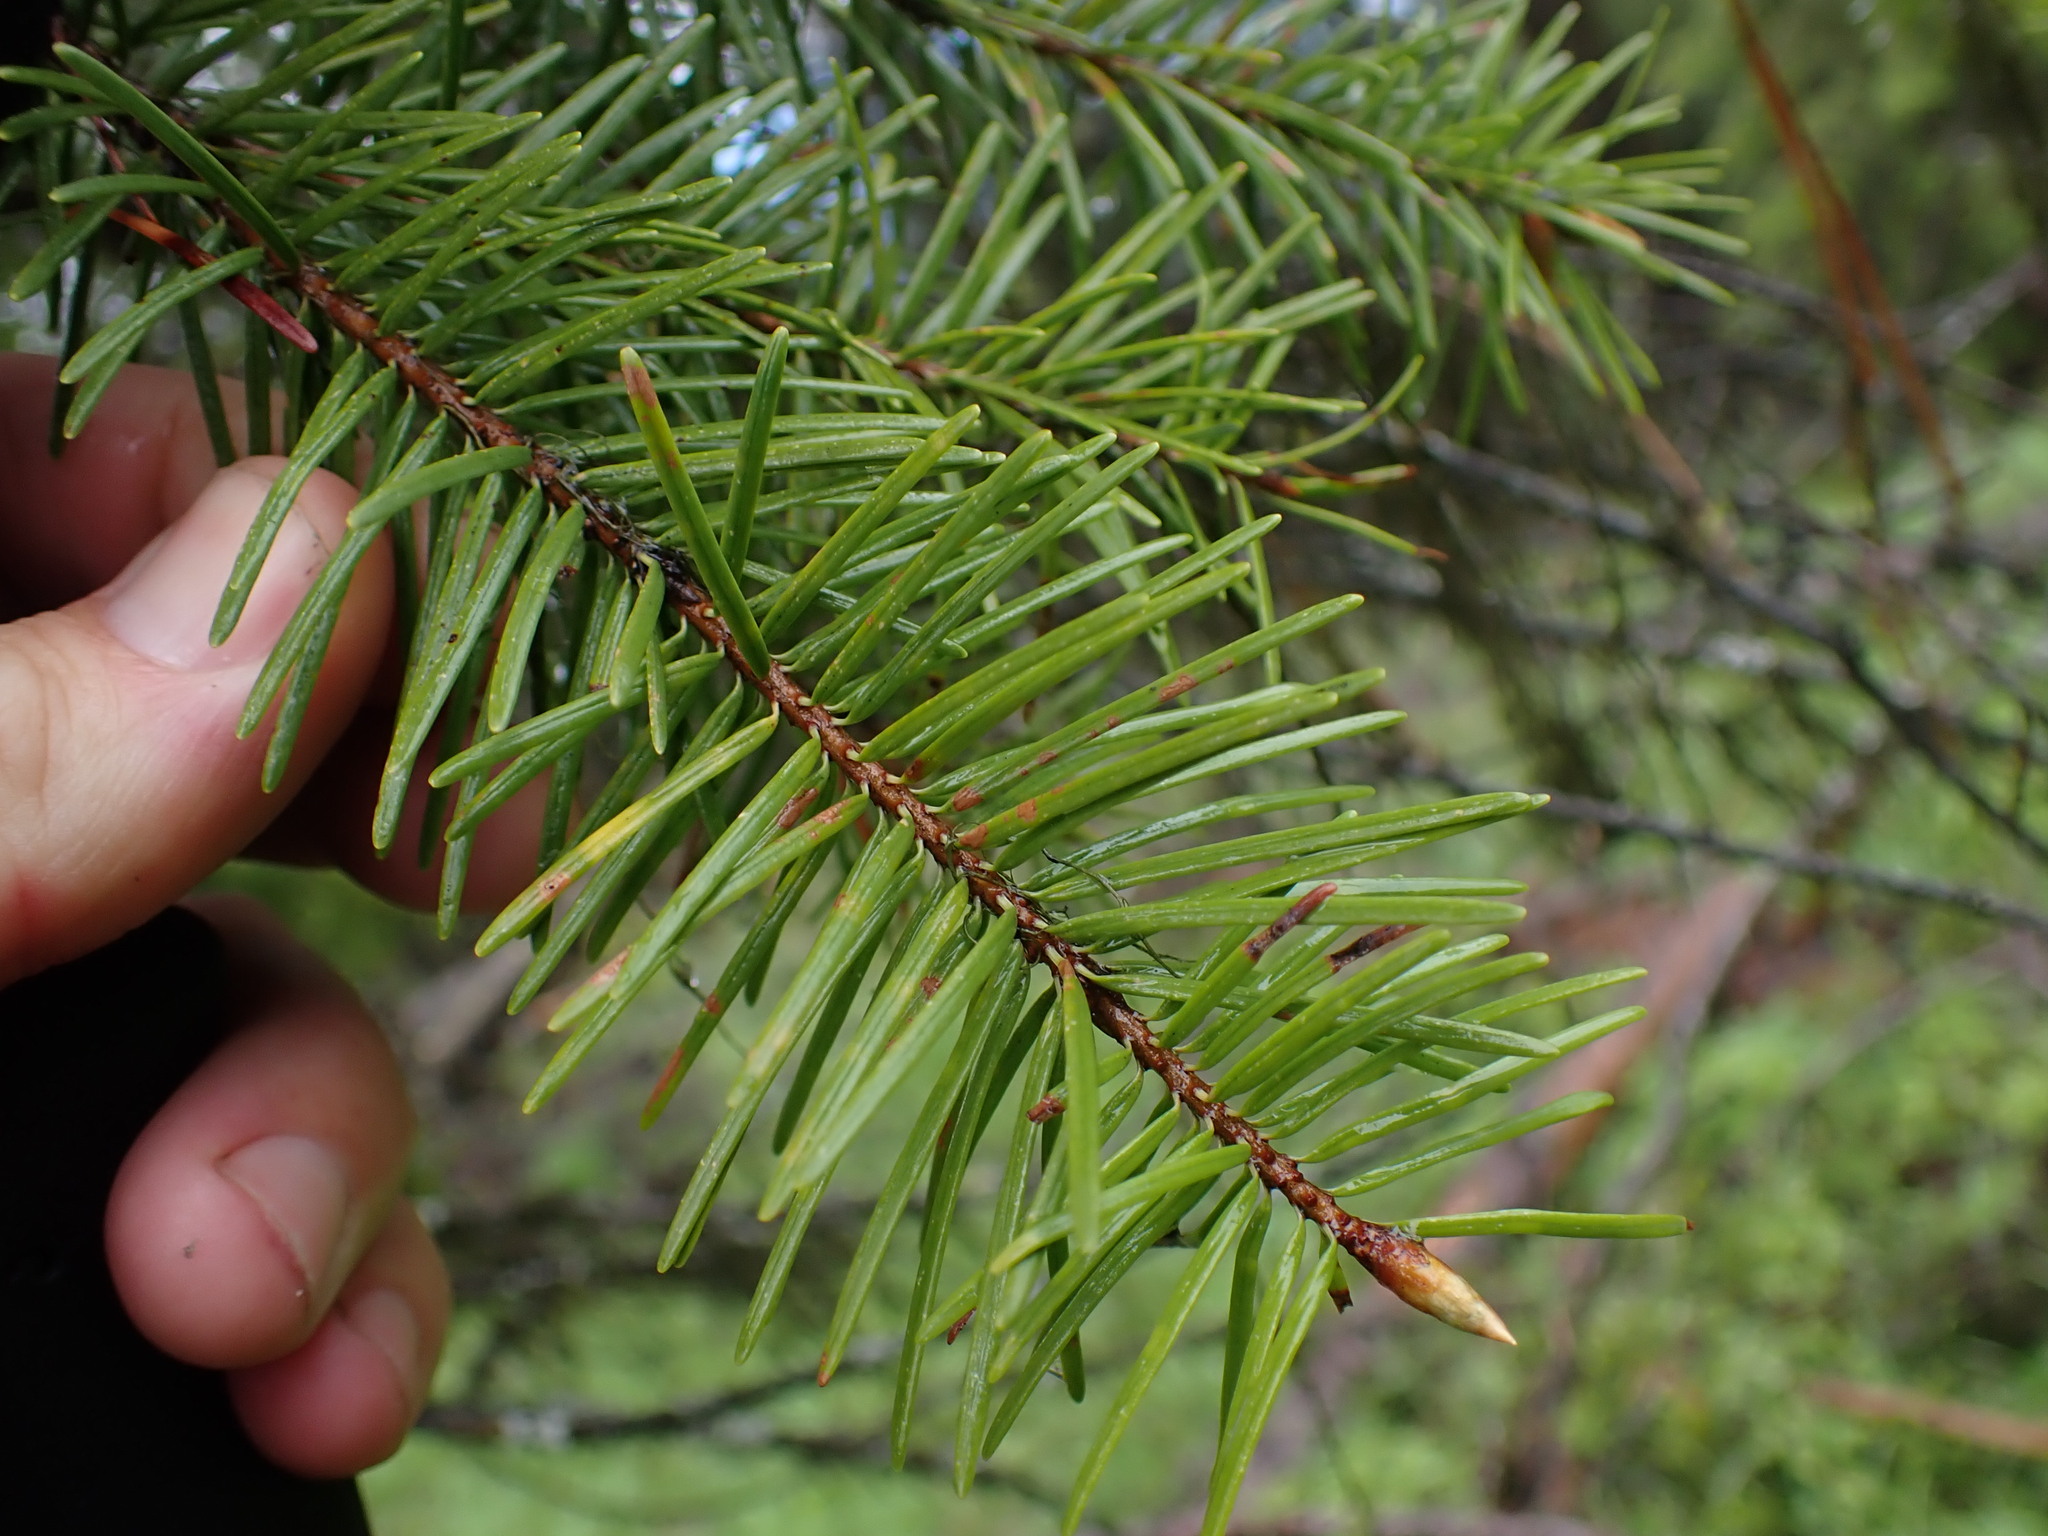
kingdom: Plantae
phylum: Tracheophyta
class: Pinopsida
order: Pinales
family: Pinaceae
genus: Pseudotsuga
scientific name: Pseudotsuga menziesii
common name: Douglas fir
